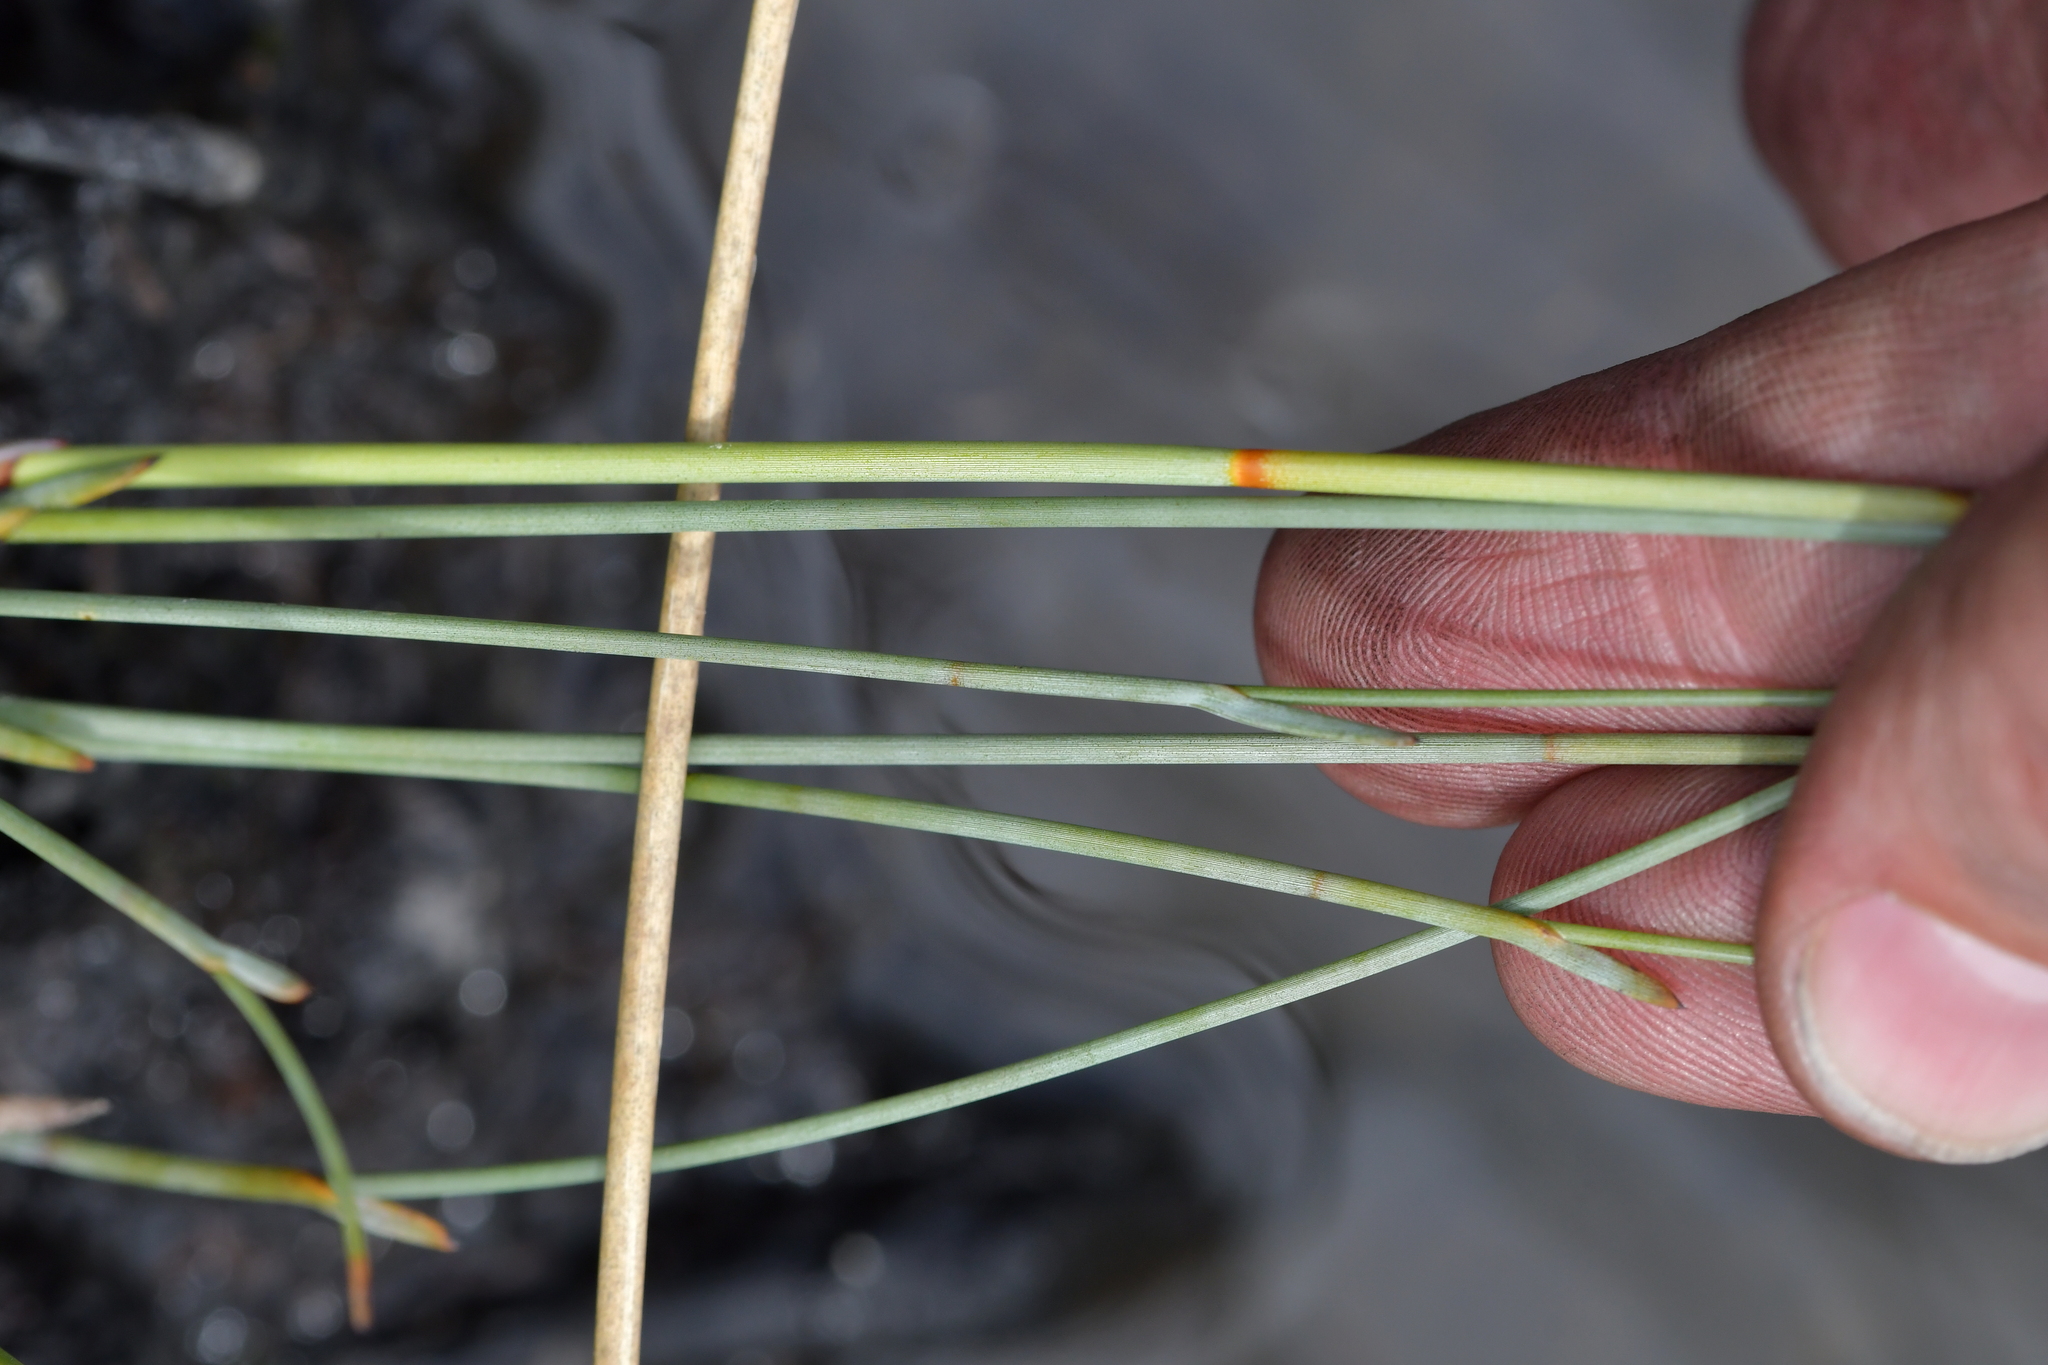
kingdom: Plantae
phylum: Tracheophyta
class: Liliopsida
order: Poales
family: Cyperaceae
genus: Machaerina
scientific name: Machaerina juncea
